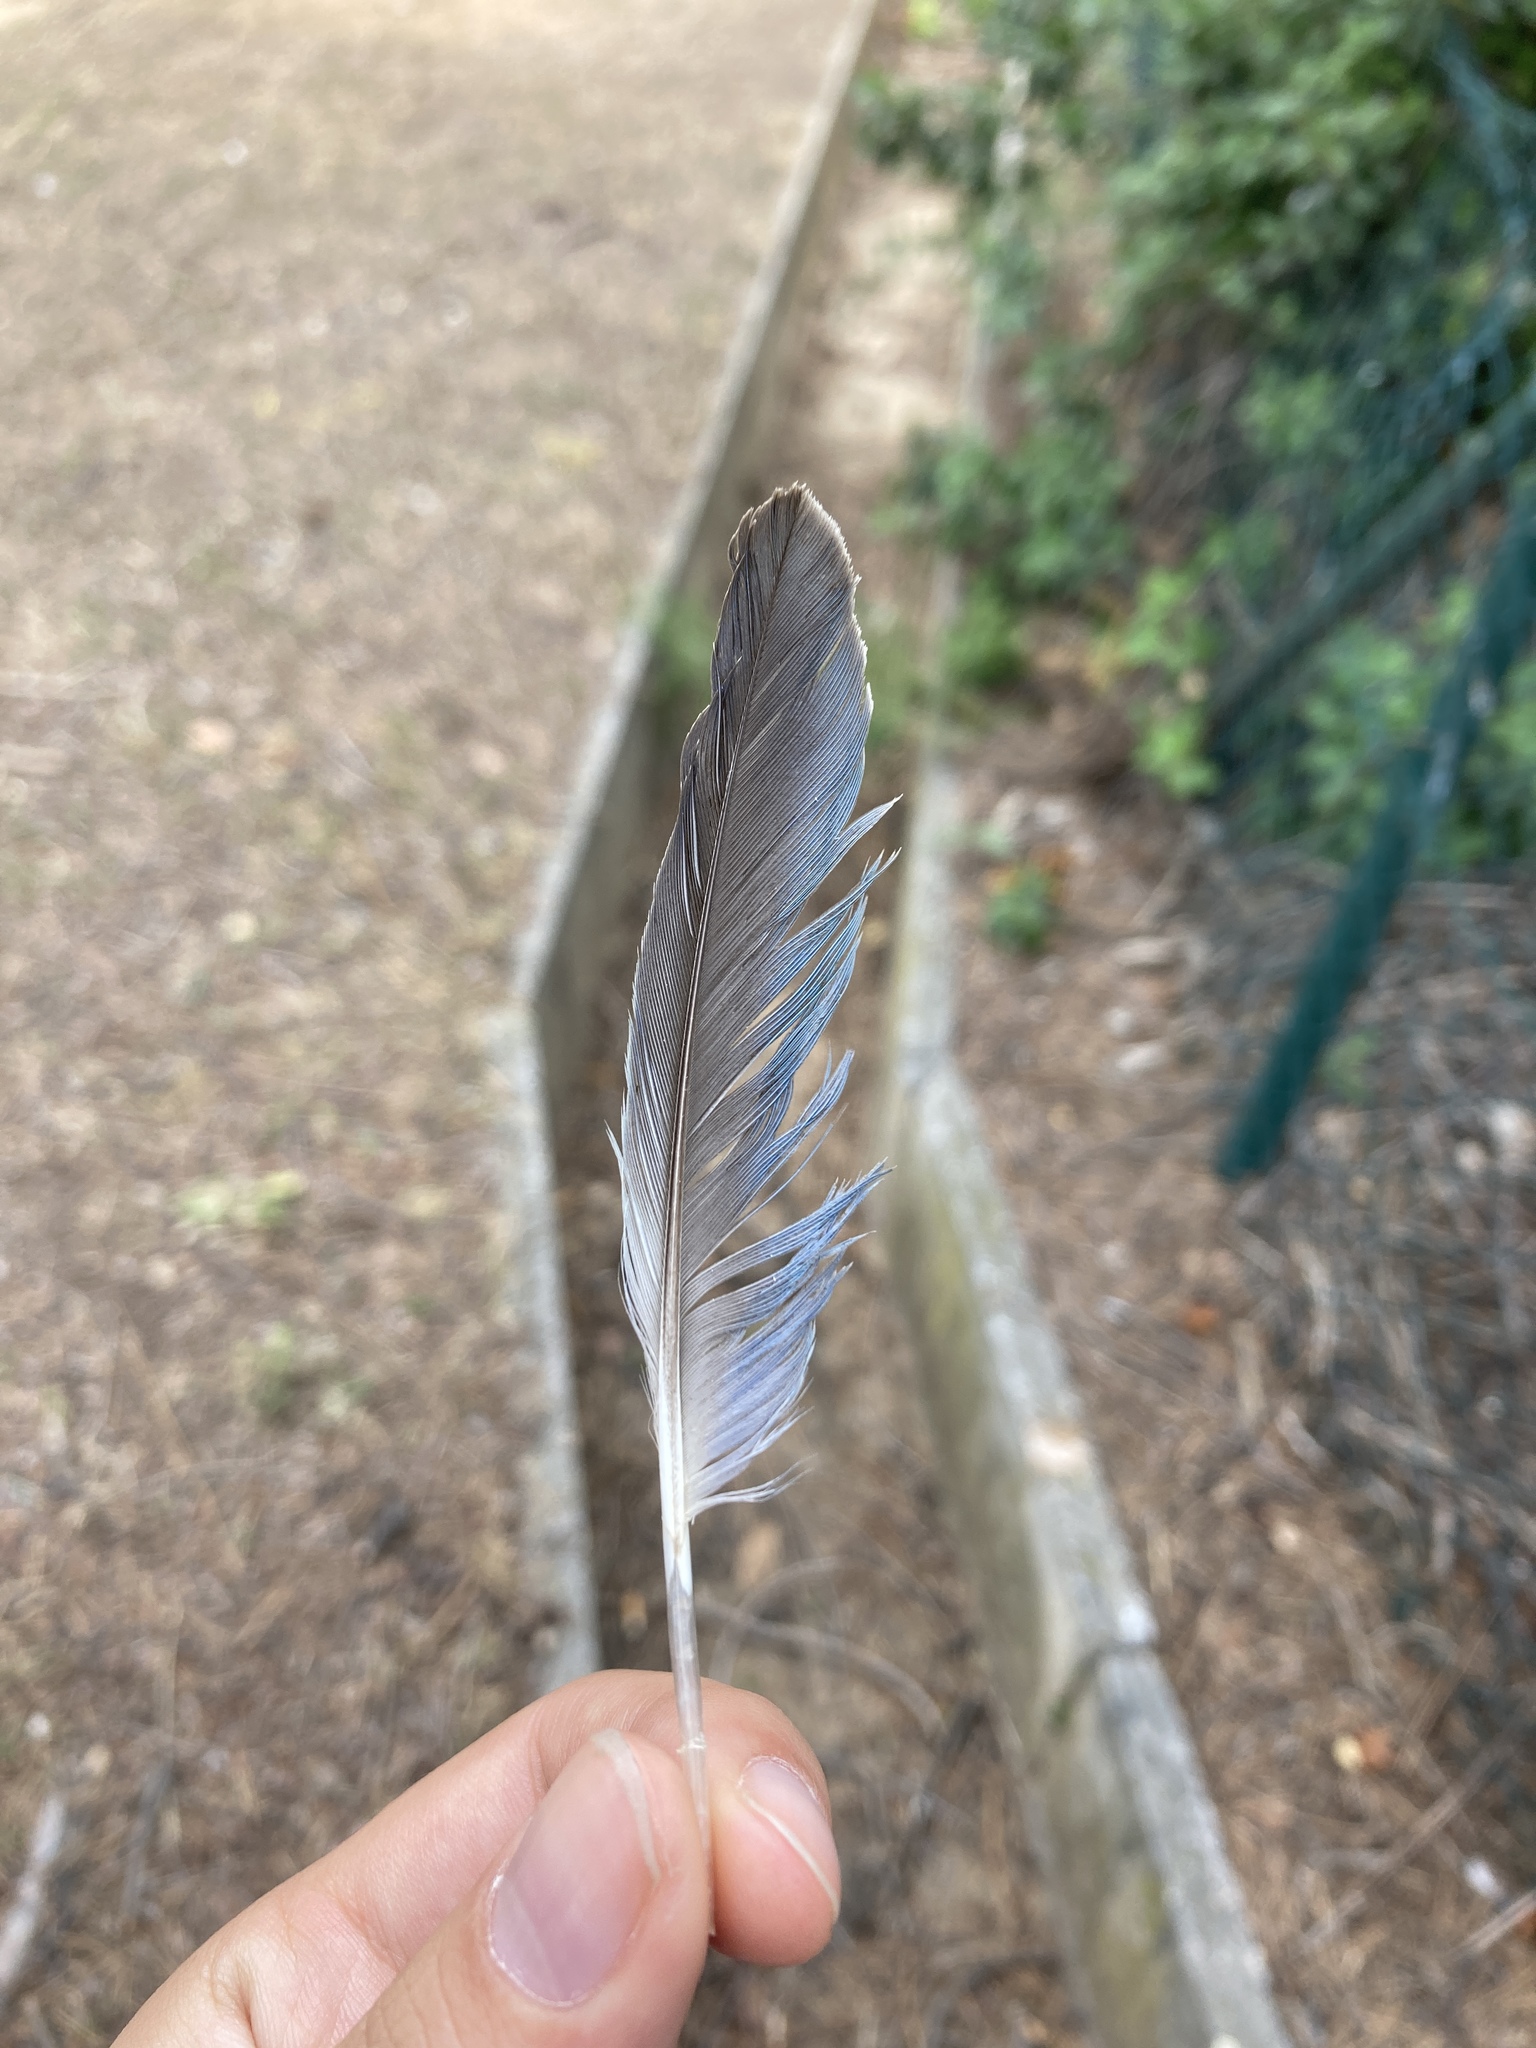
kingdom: Animalia
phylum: Chordata
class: Aves
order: Psittaciformes
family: Psittacidae
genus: Myiopsitta
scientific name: Myiopsitta monachus
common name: Monk parakeet
